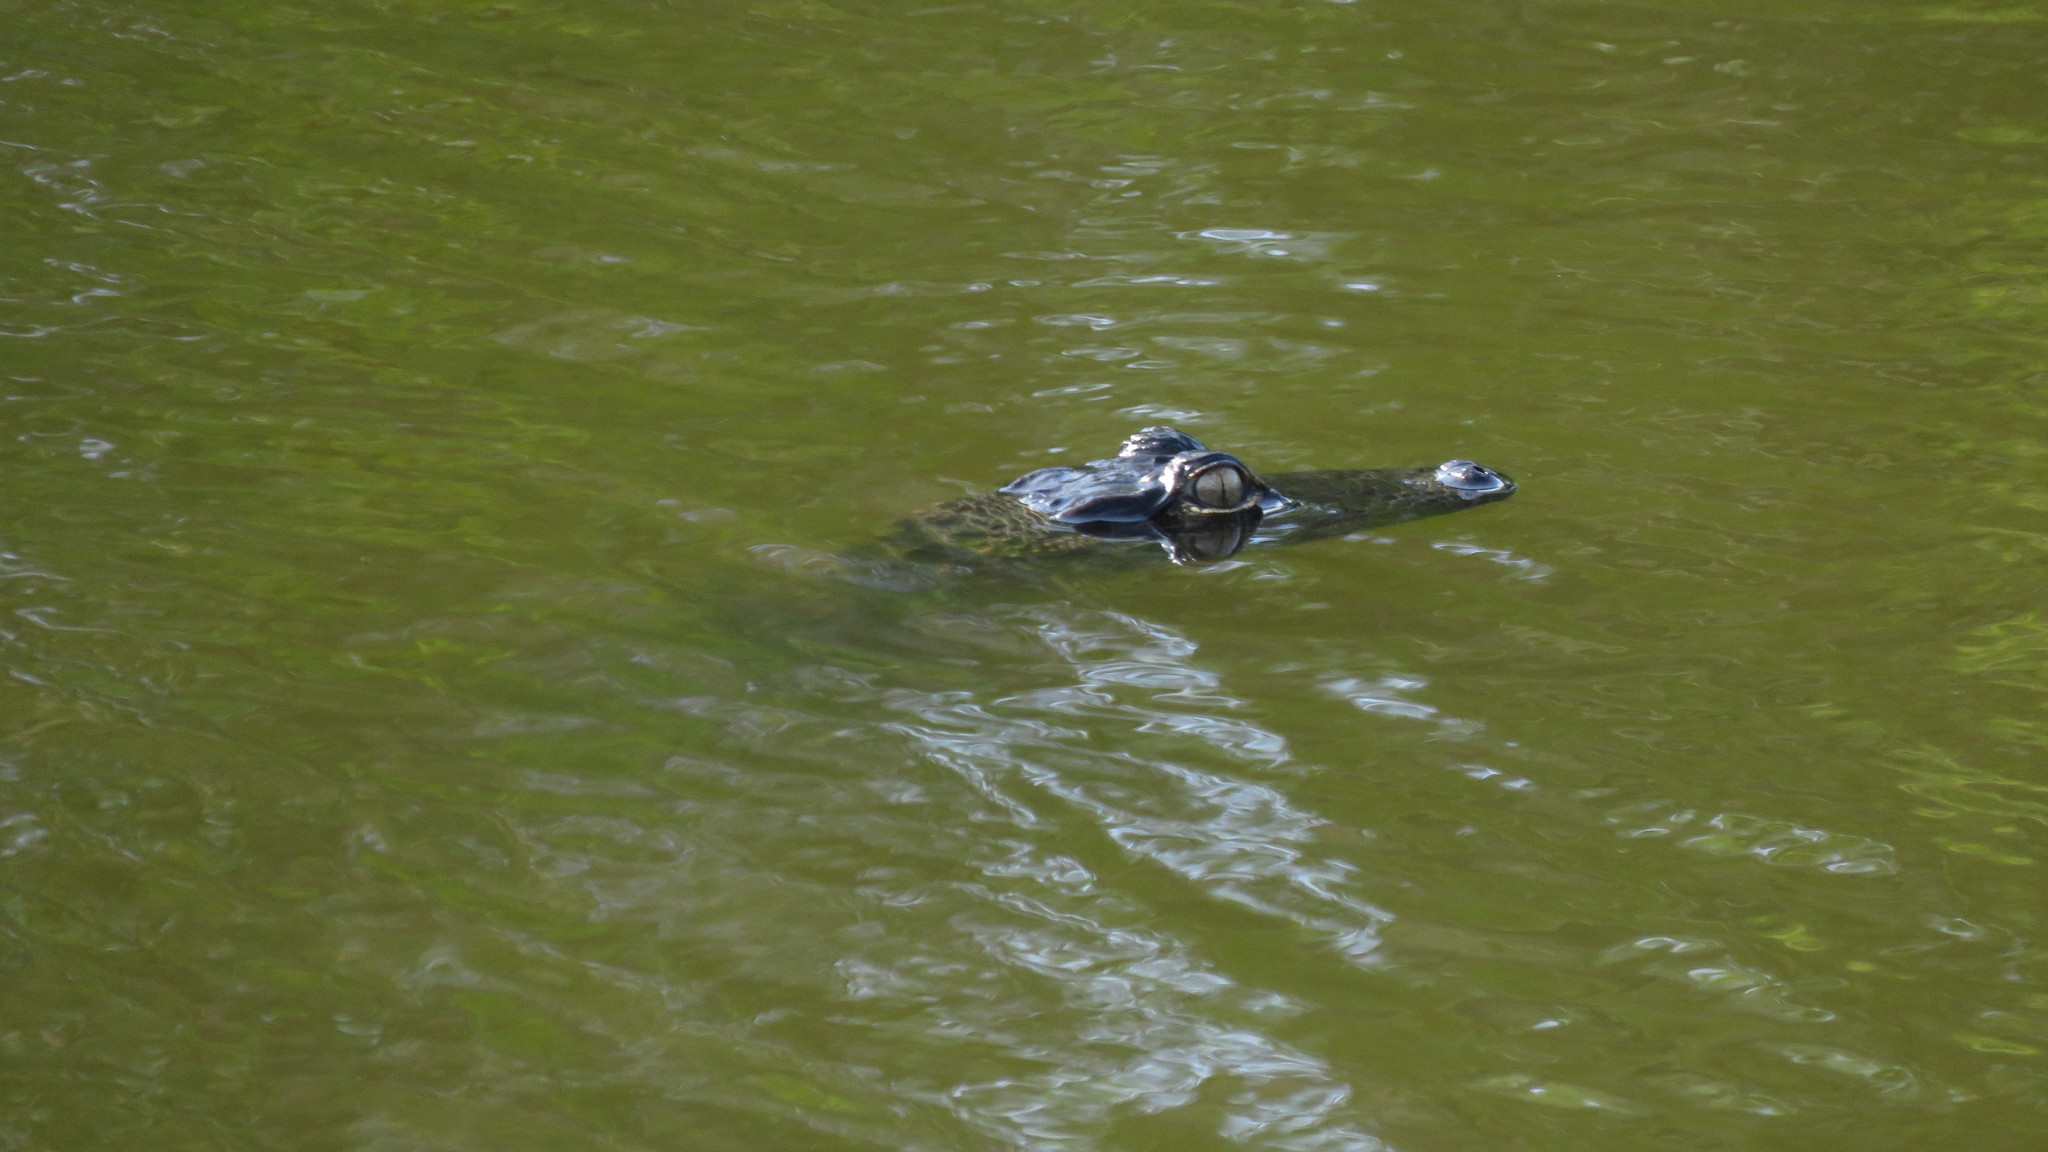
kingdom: Animalia
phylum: Chordata
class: Crocodylia
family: Alligatoridae
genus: Alligator
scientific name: Alligator mississippiensis
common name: American alligator
